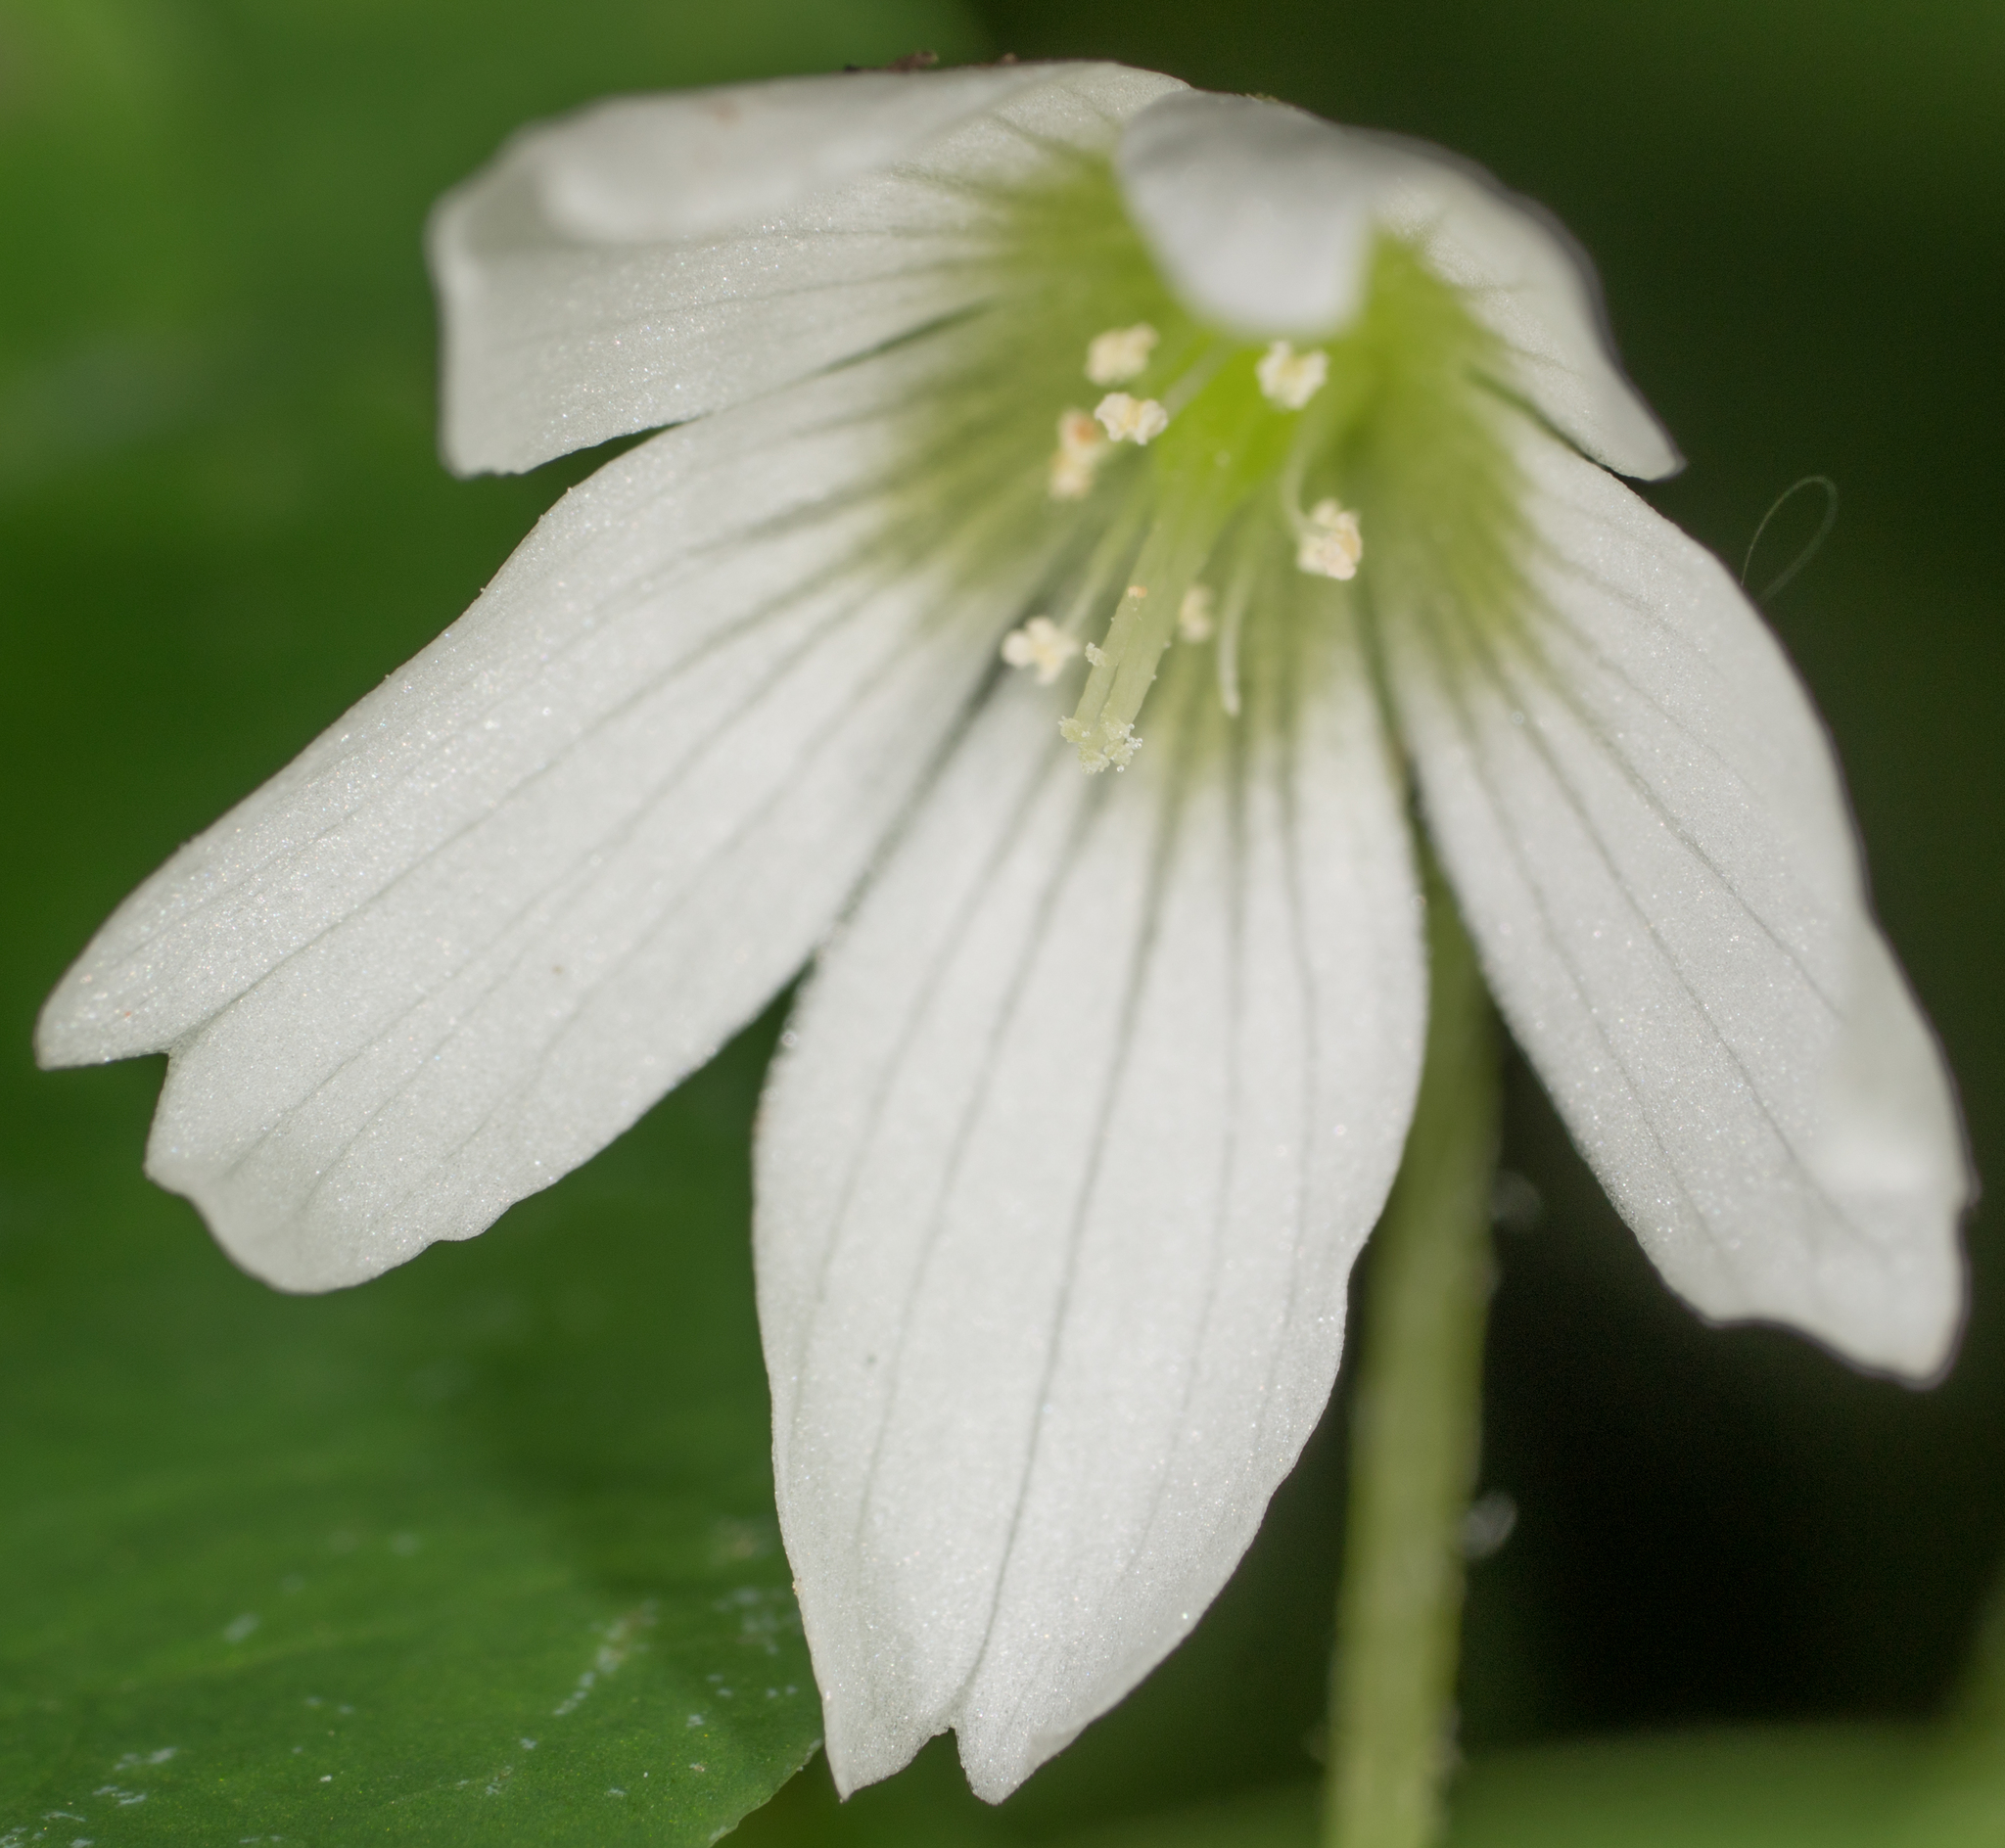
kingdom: Plantae
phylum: Tracheophyta
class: Magnoliopsida
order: Oxalidales
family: Oxalidaceae
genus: Oxalis
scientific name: Oxalis trilliifolia
